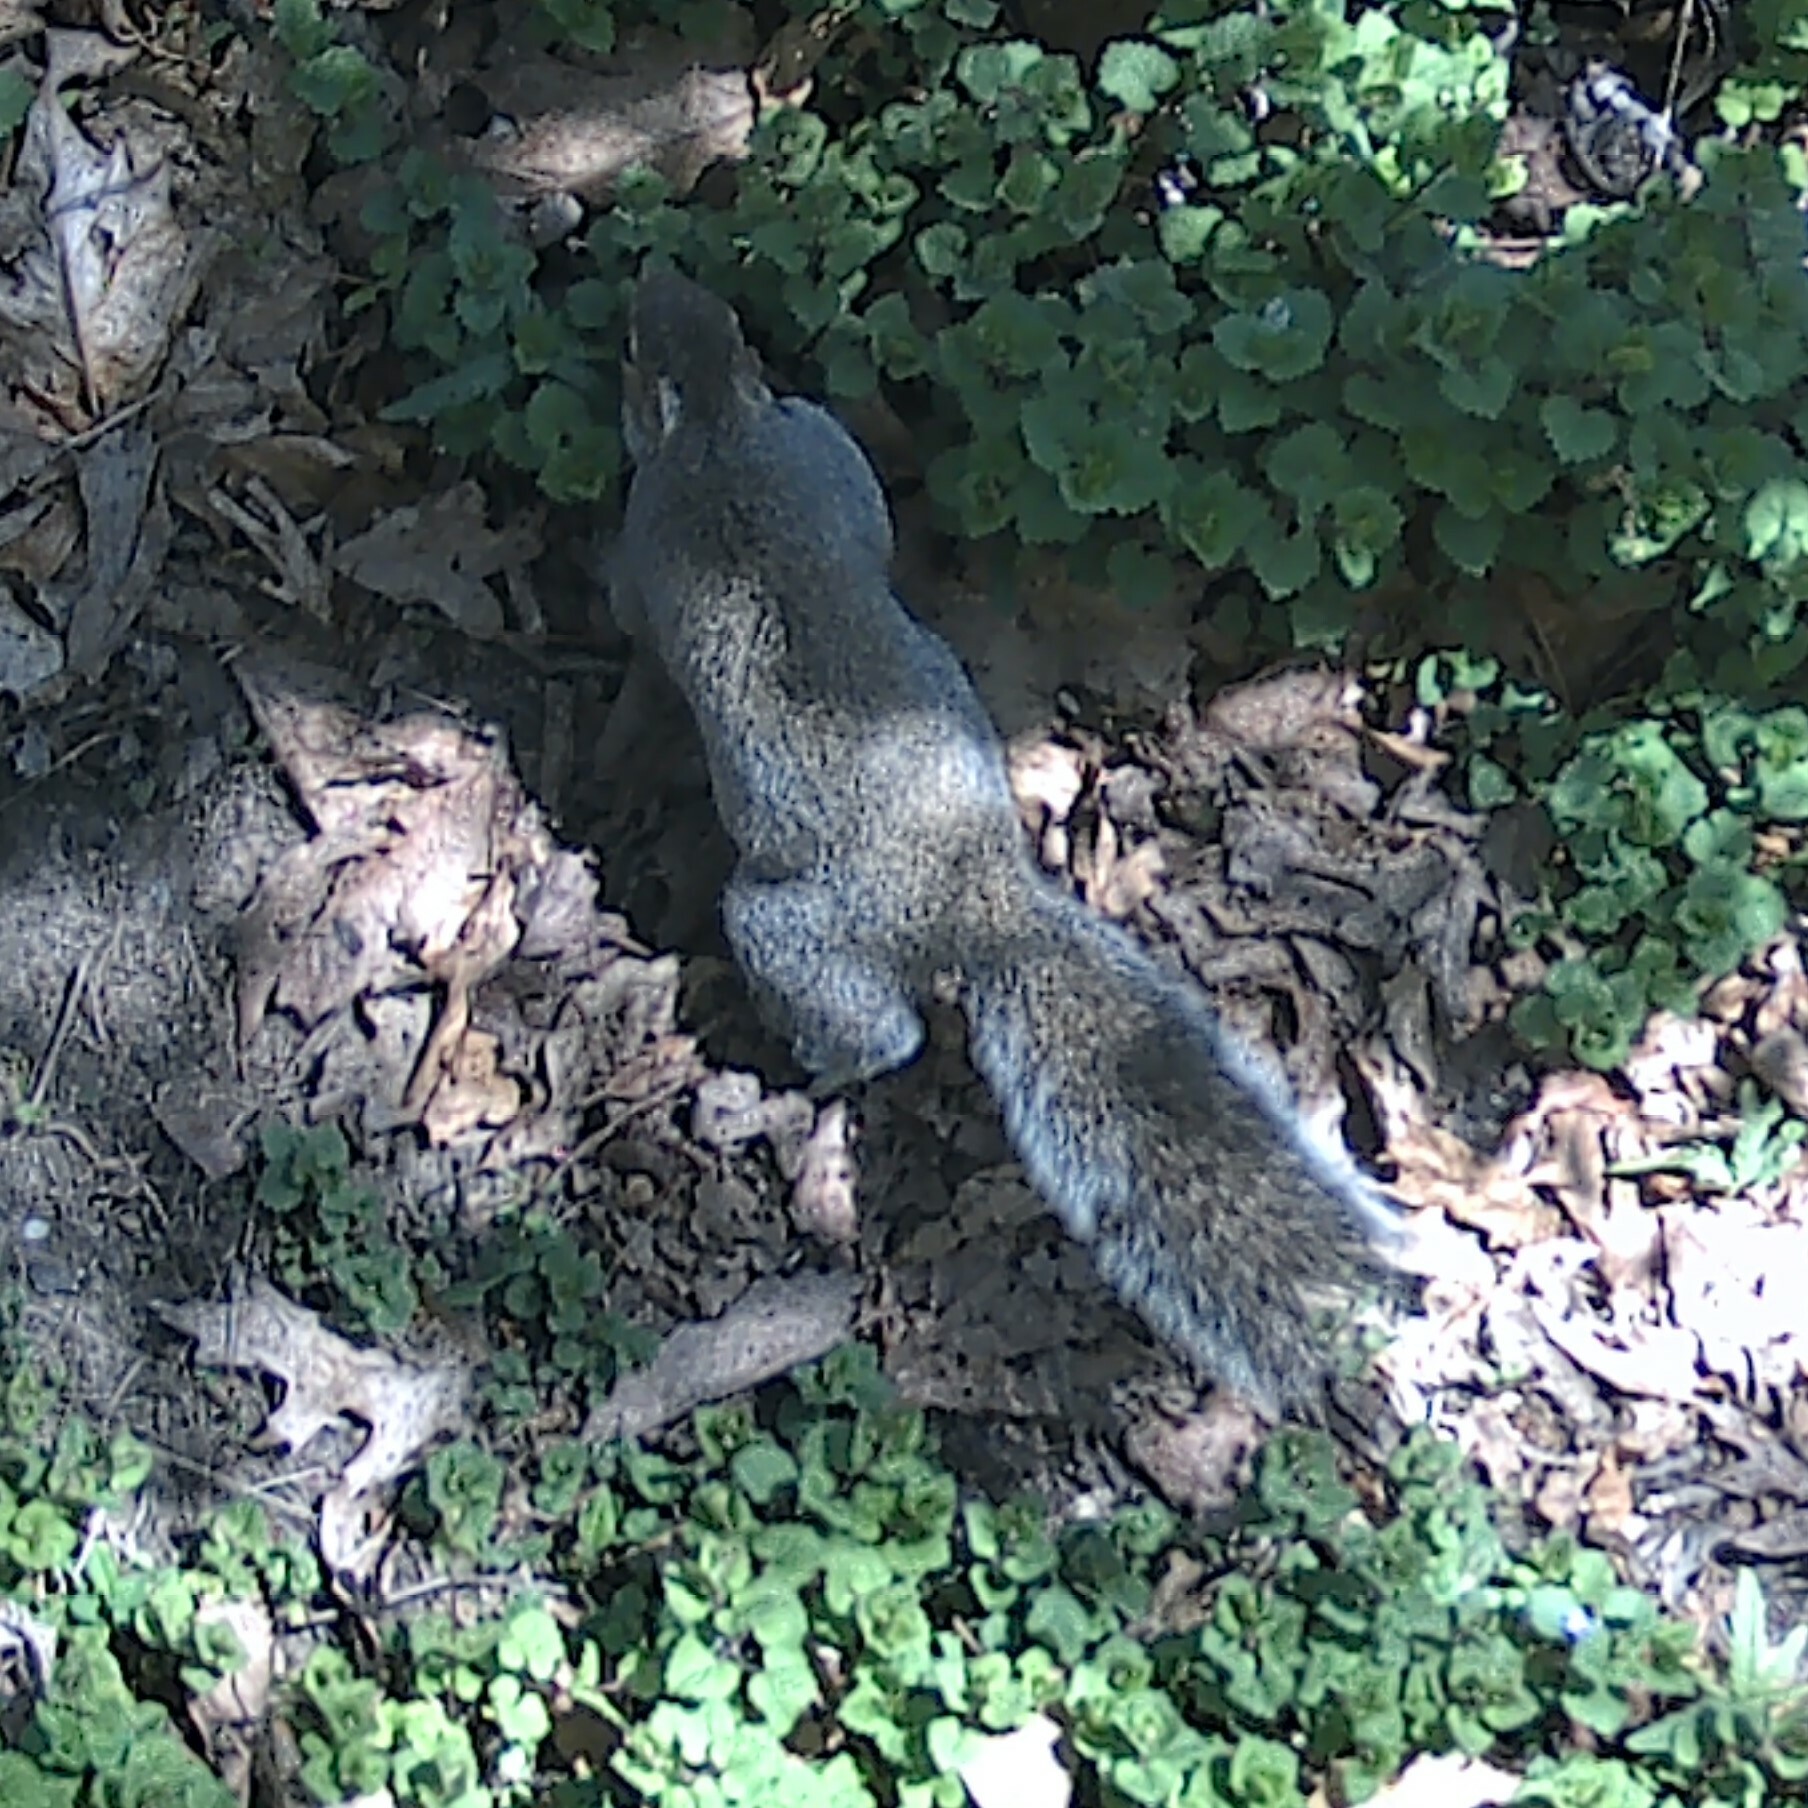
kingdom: Animalia
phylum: Chordata
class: Mammalia
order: Rodentia
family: Sciuridae
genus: Sciurus
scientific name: Sciurus carolinensis
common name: Eastern gray squirrel
